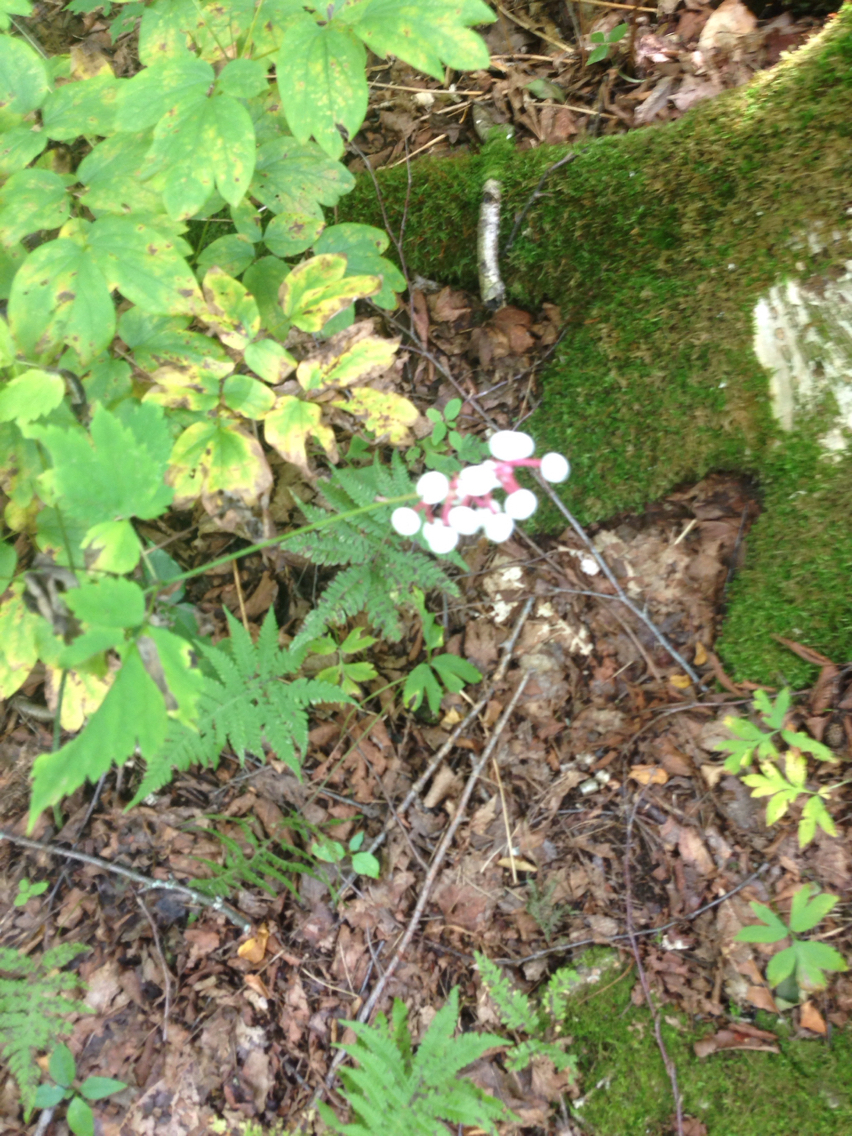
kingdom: Plantae
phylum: Tracheophyta
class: Magnoliopsida
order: Ranunculales
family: Ranunculaceae
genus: Actaea
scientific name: Actaea pachypoda
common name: Doll's-eyes
